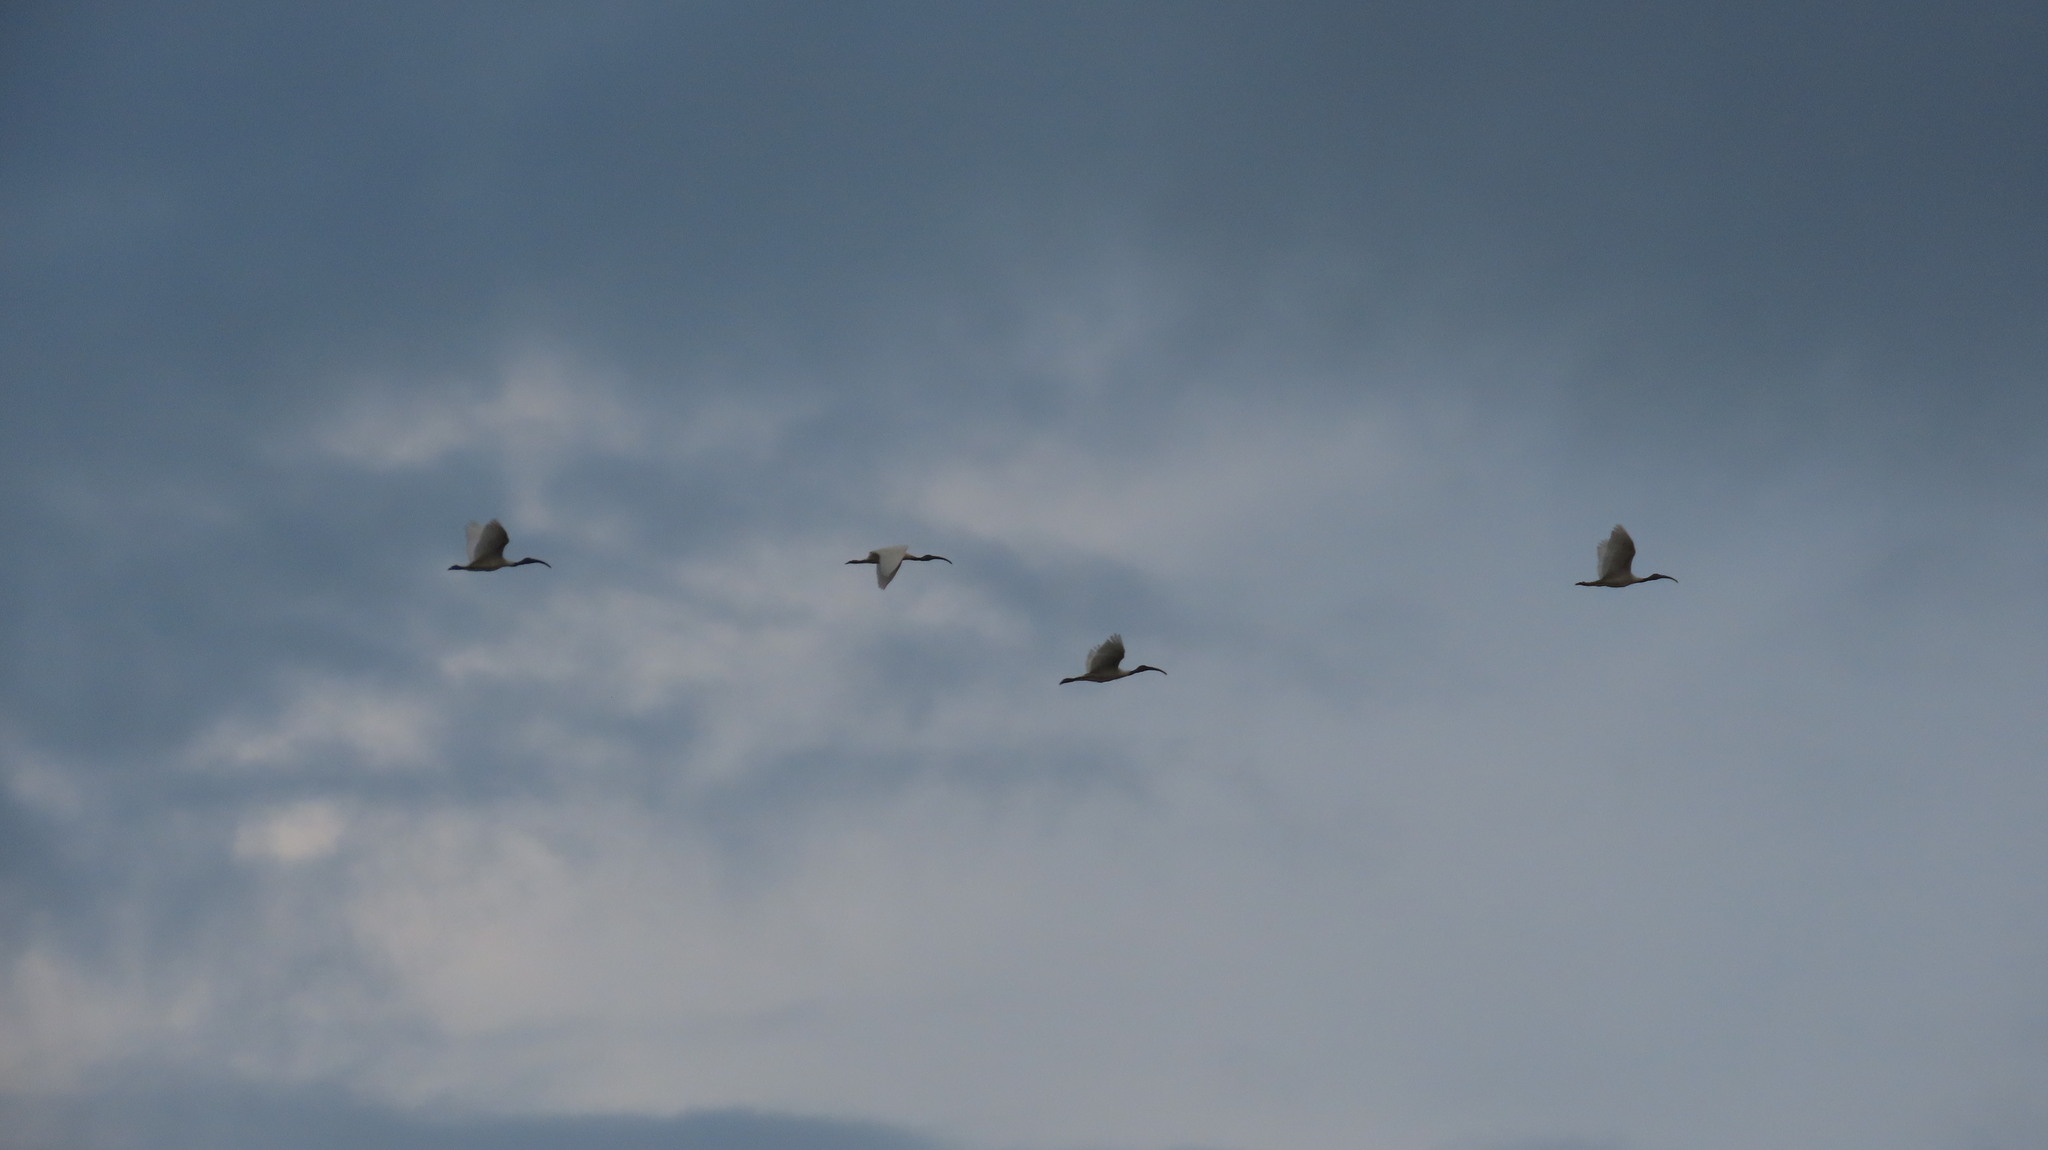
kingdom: Animalia
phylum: Chordata
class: Aves
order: Pelecaniformes
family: Threskiornithidae
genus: Threskiornis
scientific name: Threskiornis melanocephalus
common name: Black-headed ibis
